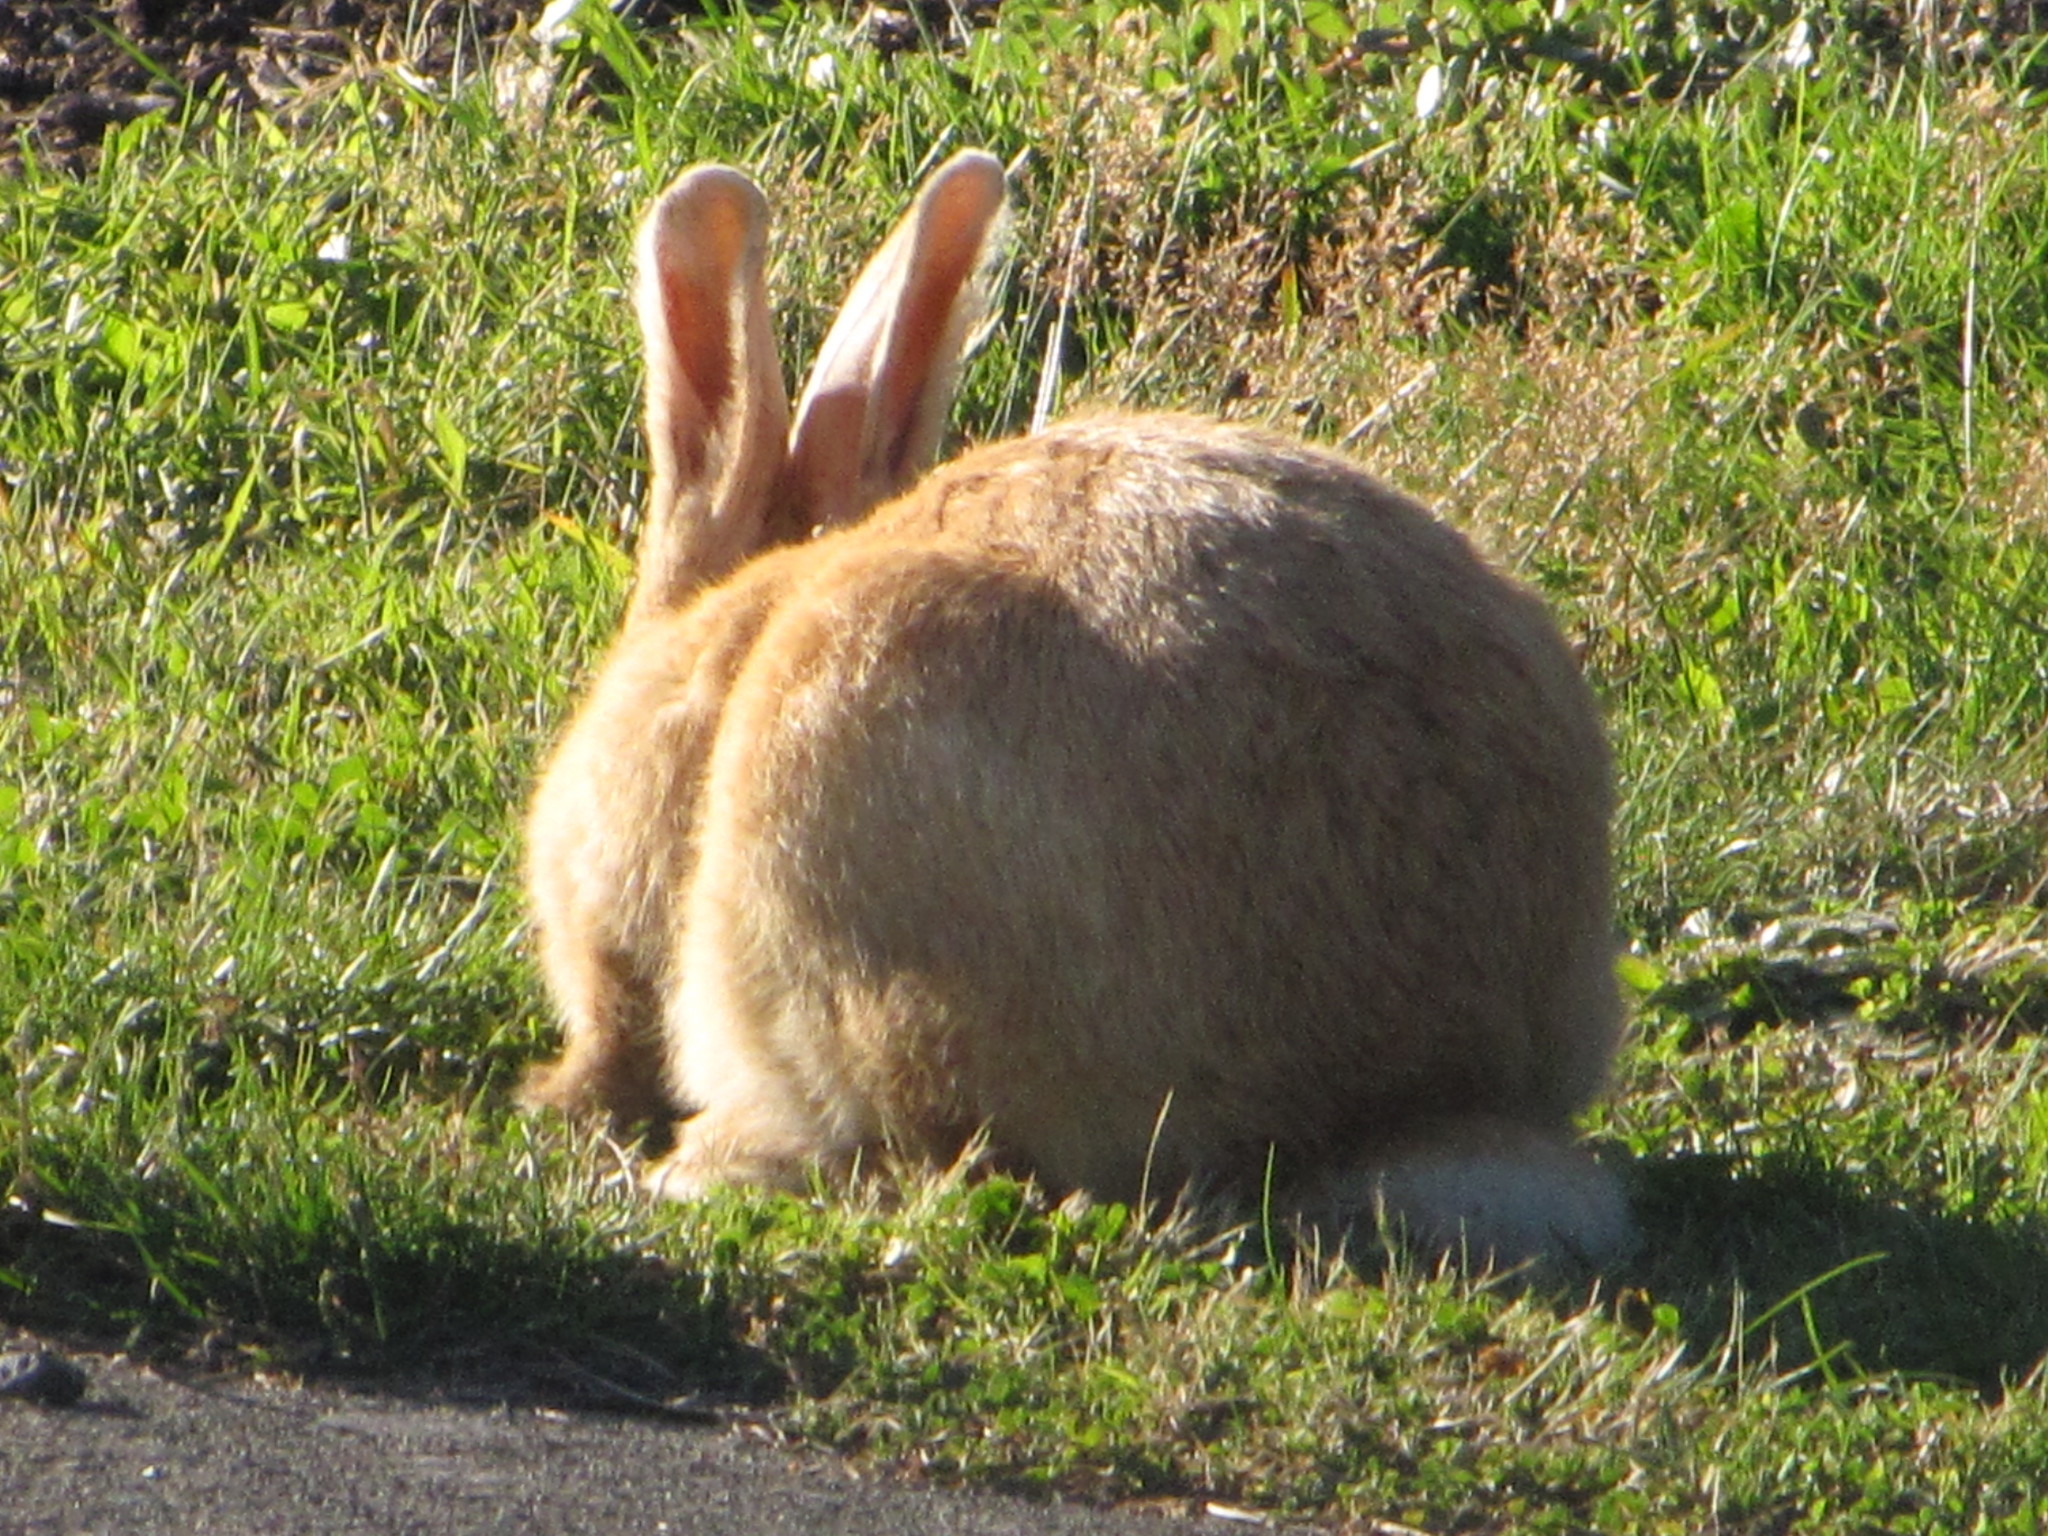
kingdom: Animalia
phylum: Chordata
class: Mammalia
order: Lagomorpha
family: Leporidae
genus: Oryctolagus
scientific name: Oryctolagus cuniculus
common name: European rabbit
